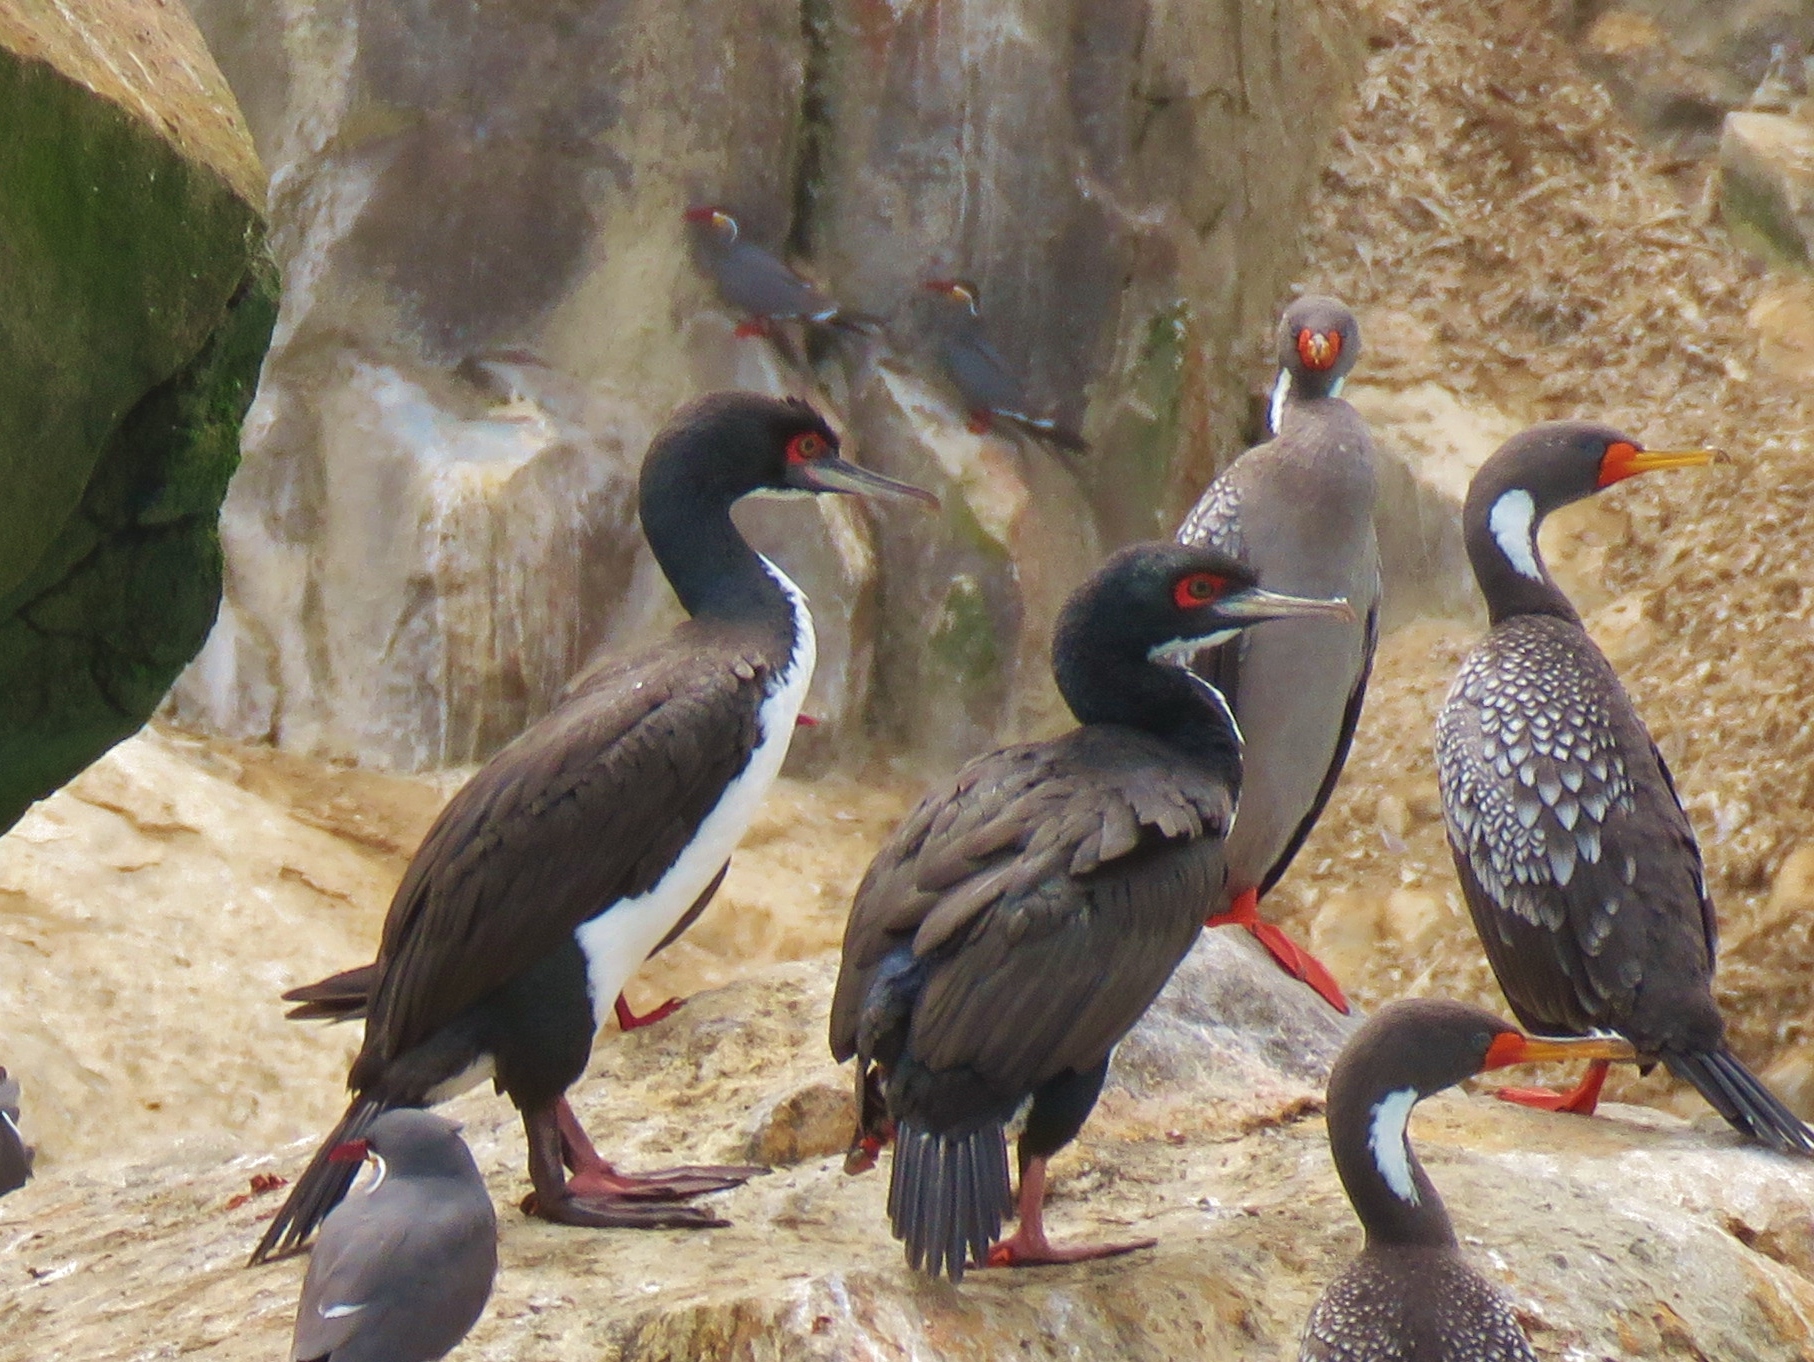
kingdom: Animalia
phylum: Chordata
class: Aves
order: Suliformes
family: Phalacrocoracidae
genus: Leucocarbo
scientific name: Leucocarbo bougainvillii
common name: Guanay cormorant
